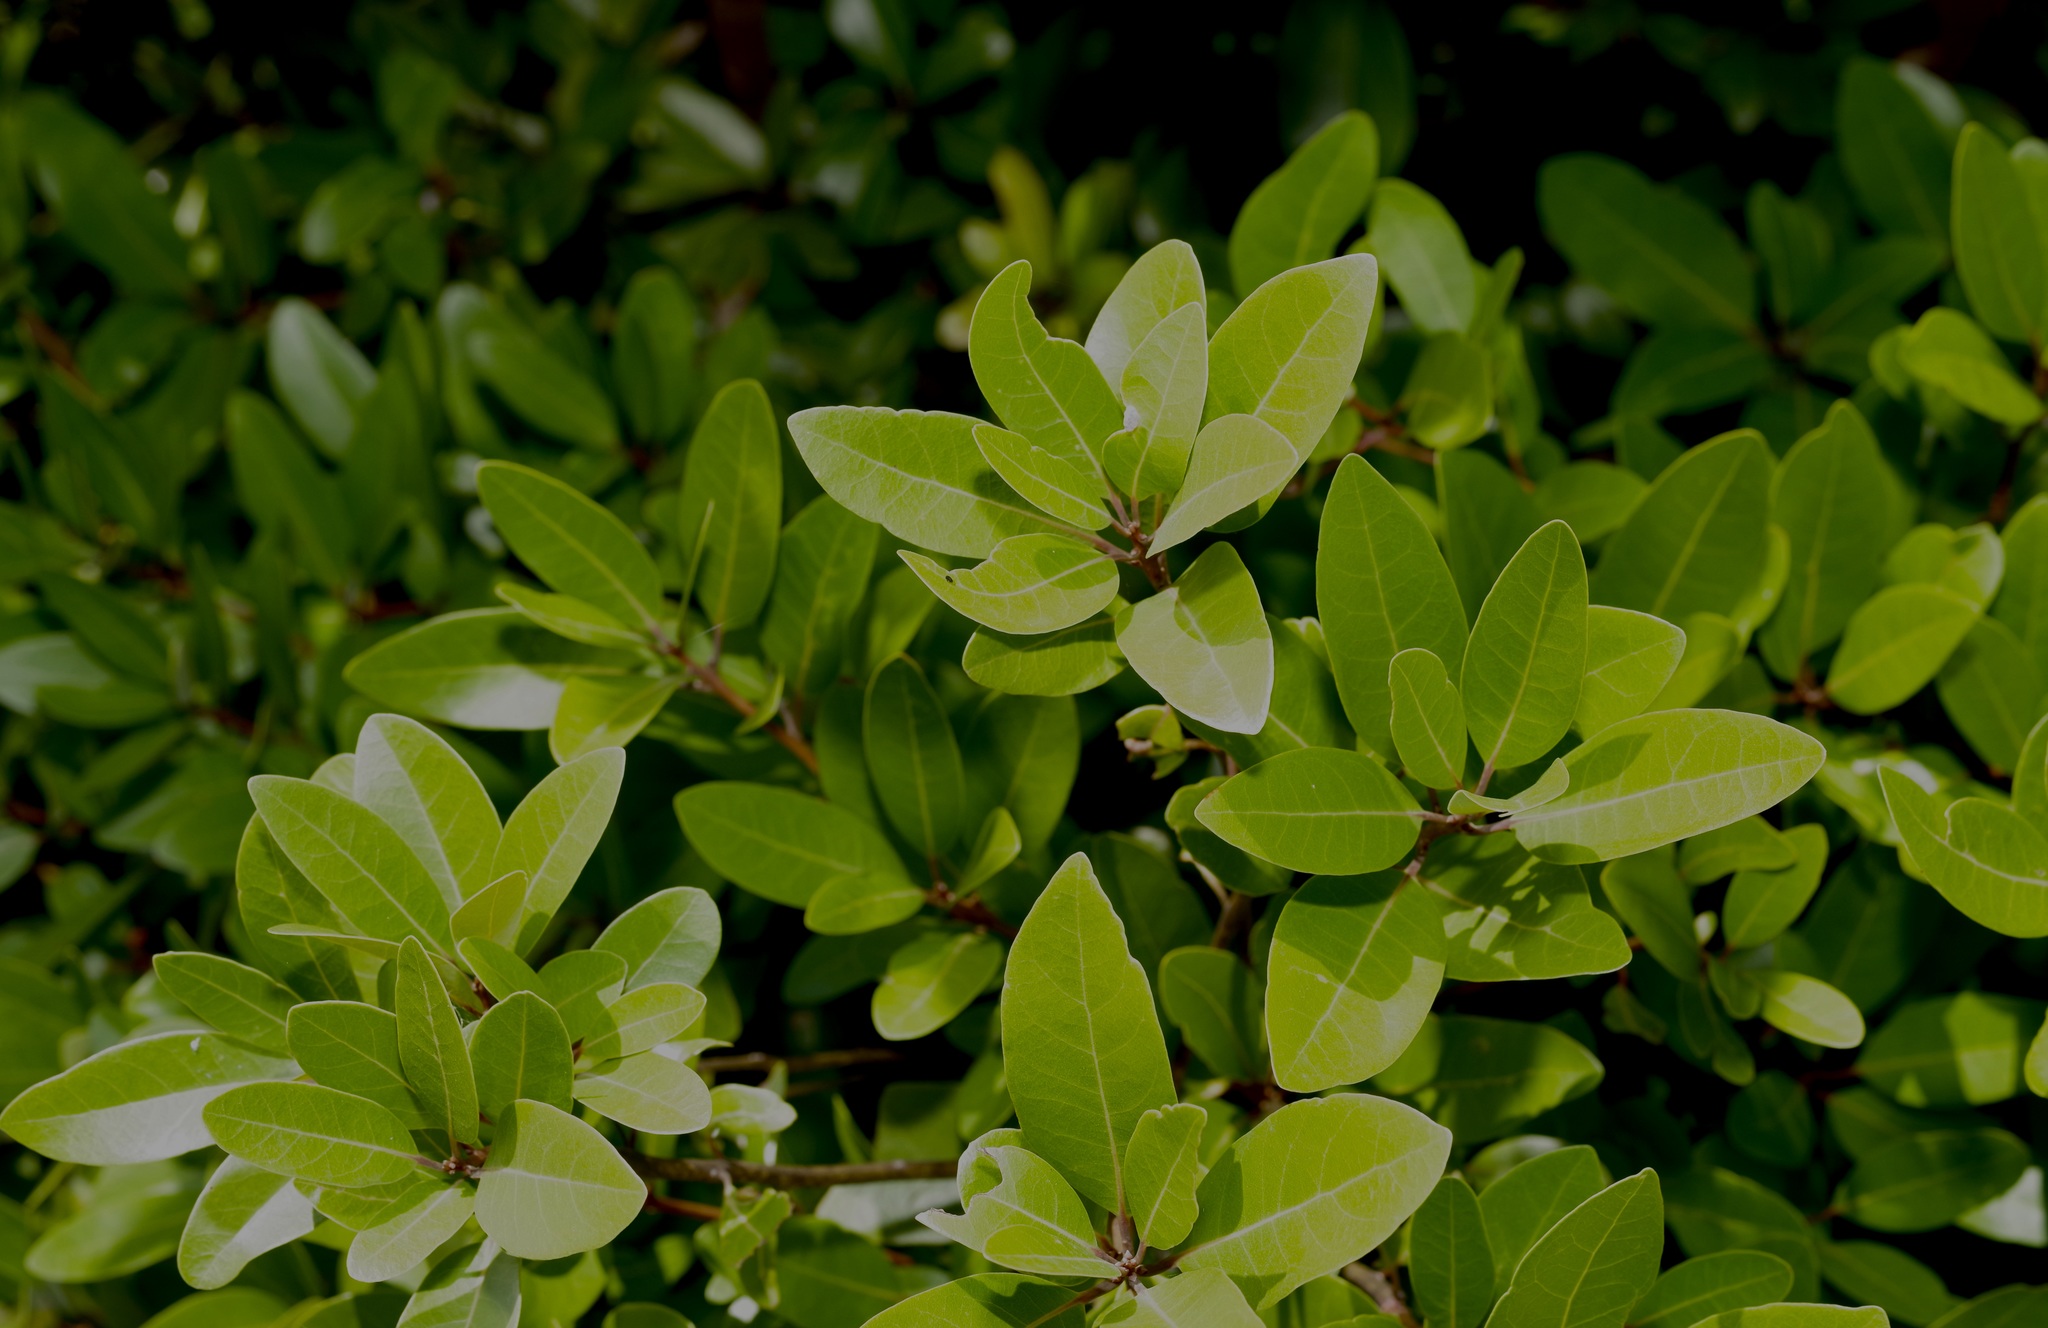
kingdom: Plantae
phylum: Tracheophyta
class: Magnoliopsida
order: Laurales
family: Lauraceae
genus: Persea
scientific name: Persea borbonia
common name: Redbay
